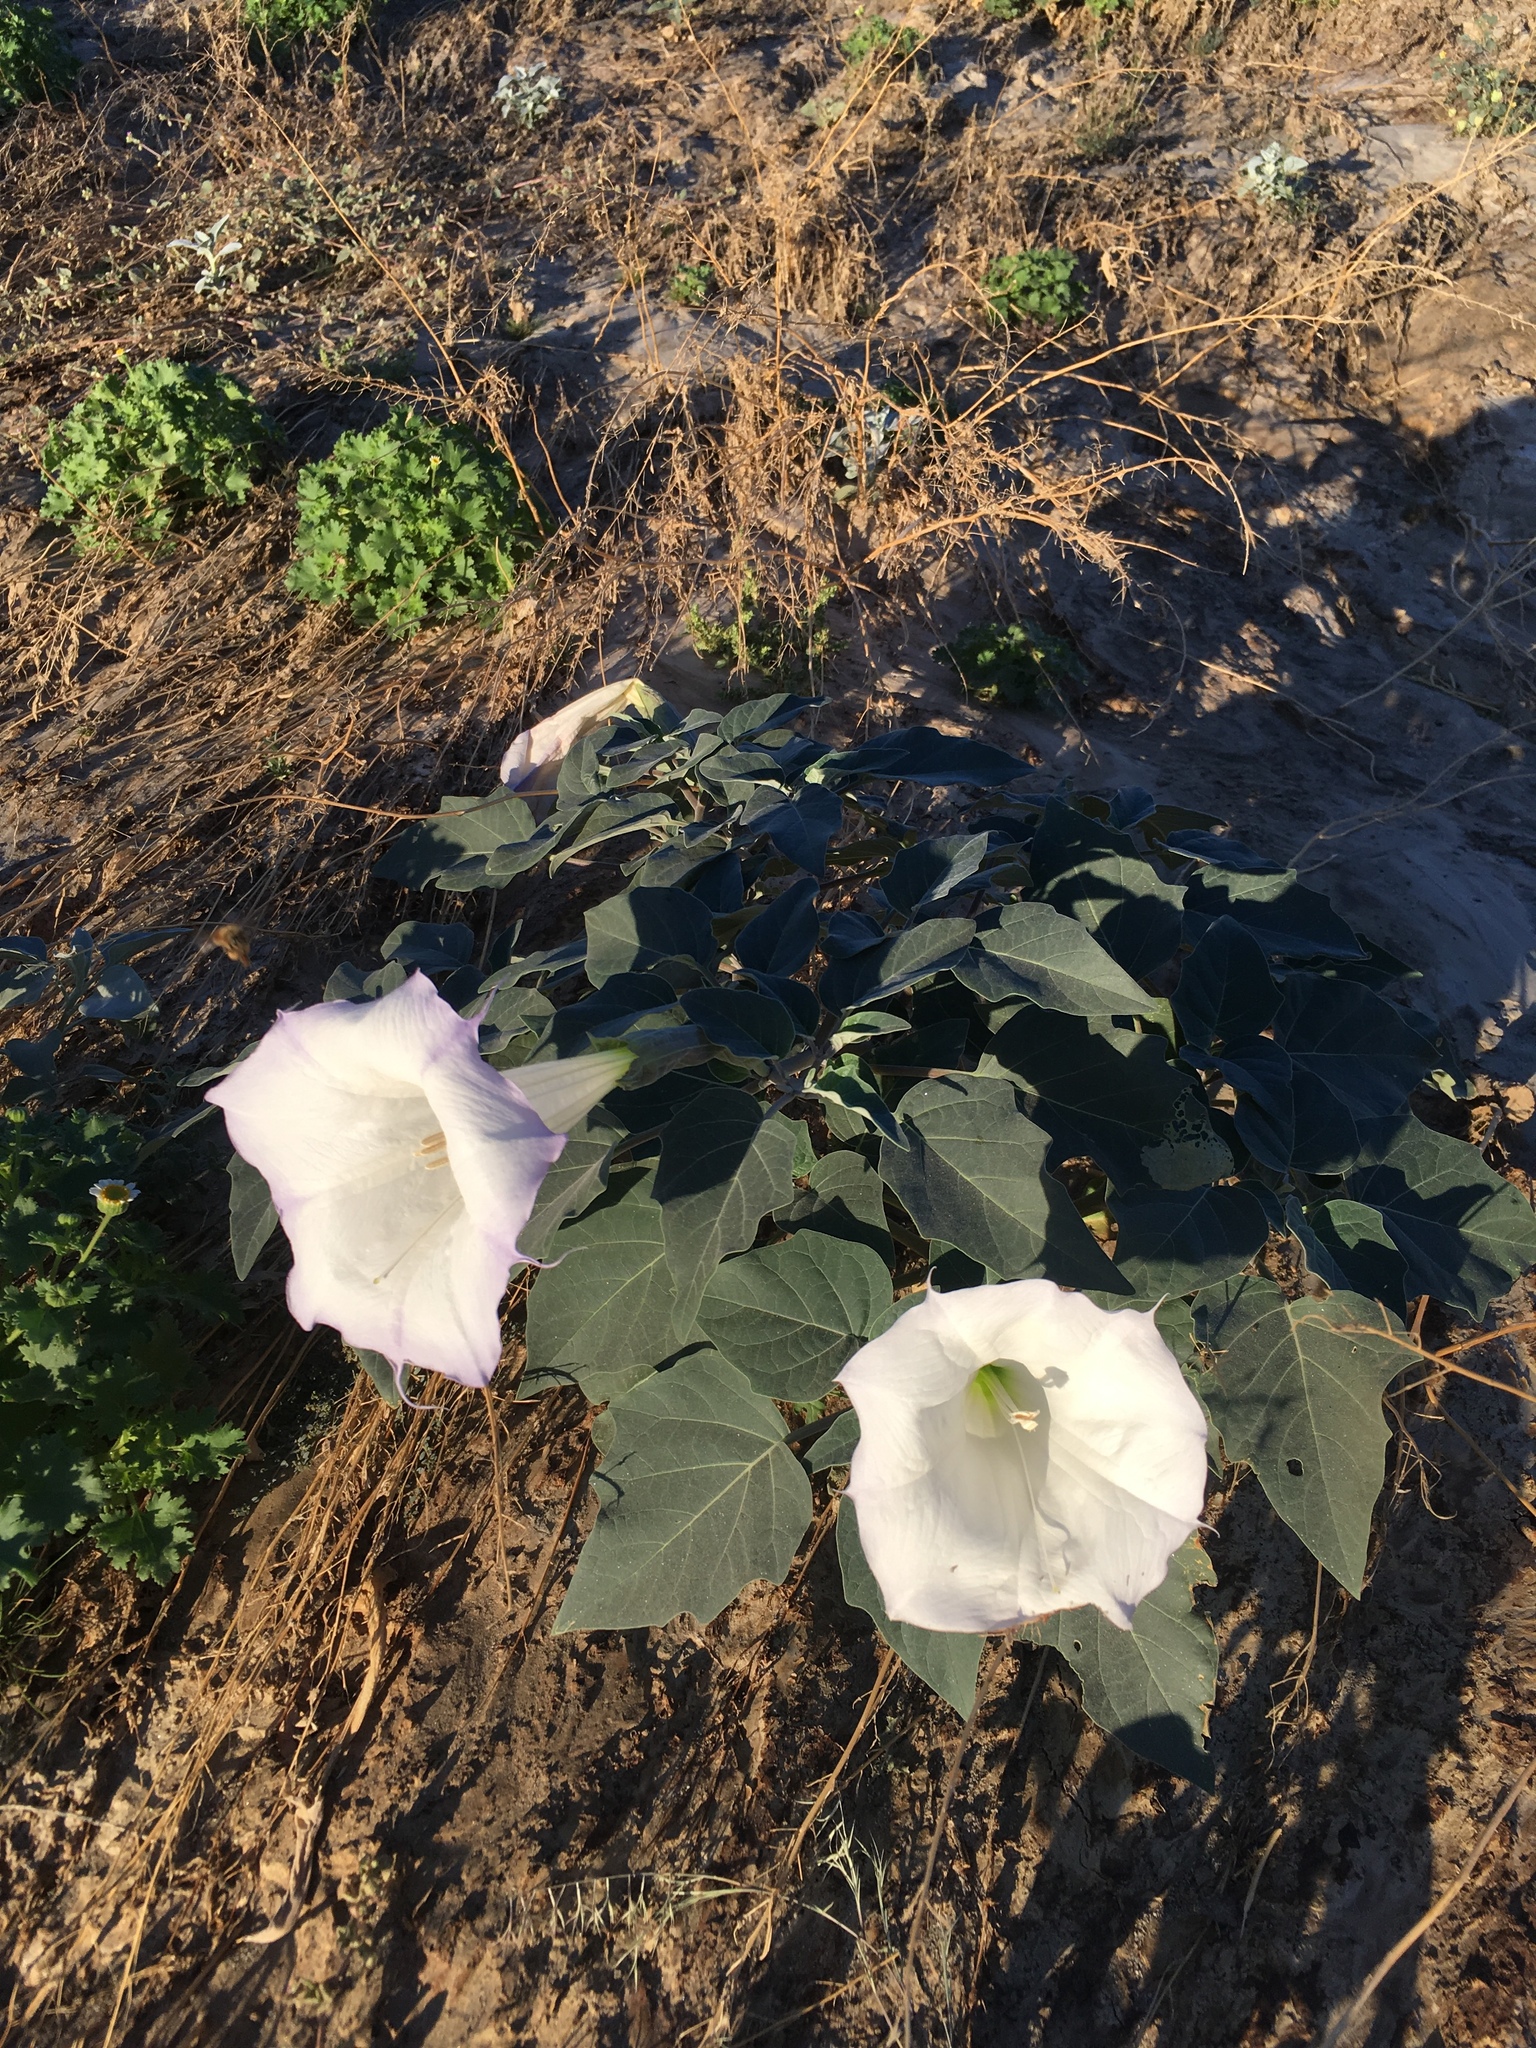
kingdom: Plantae
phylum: Tracheophyta
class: Magnoliopsida
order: Solanales
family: Solanaceae
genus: Datura
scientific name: Datura wrightii
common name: Sacred thorn-apple
